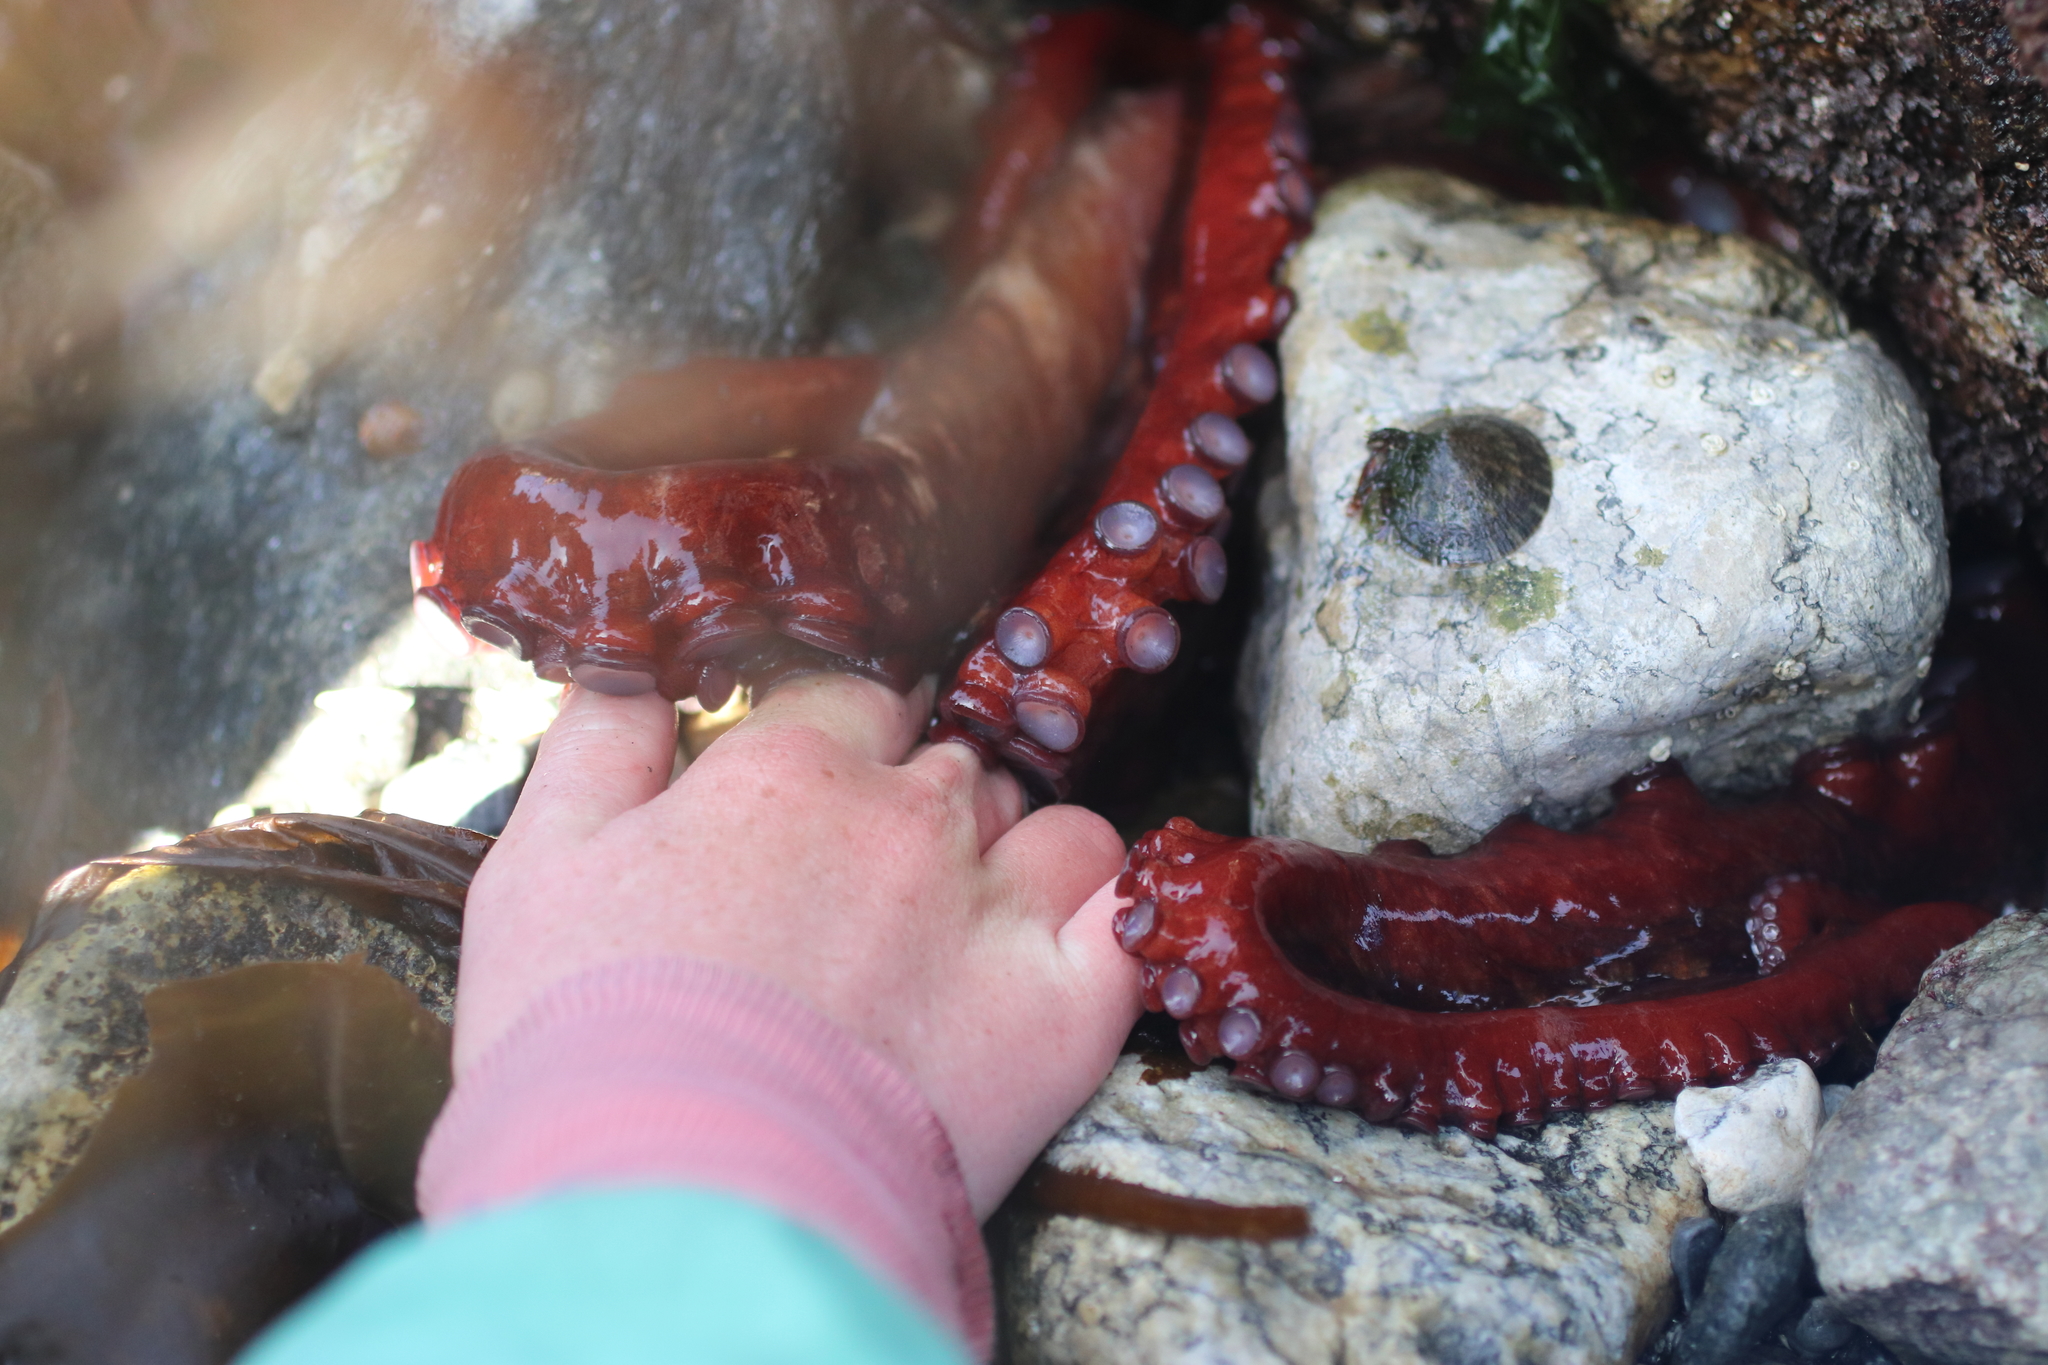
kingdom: Animalia
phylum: Mollusca
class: Cephalopoda
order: Octopoda
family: Enteroctopodidae
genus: Enteroctopus
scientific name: Enteroctopus dofleini
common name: Giant north pacific octopus
